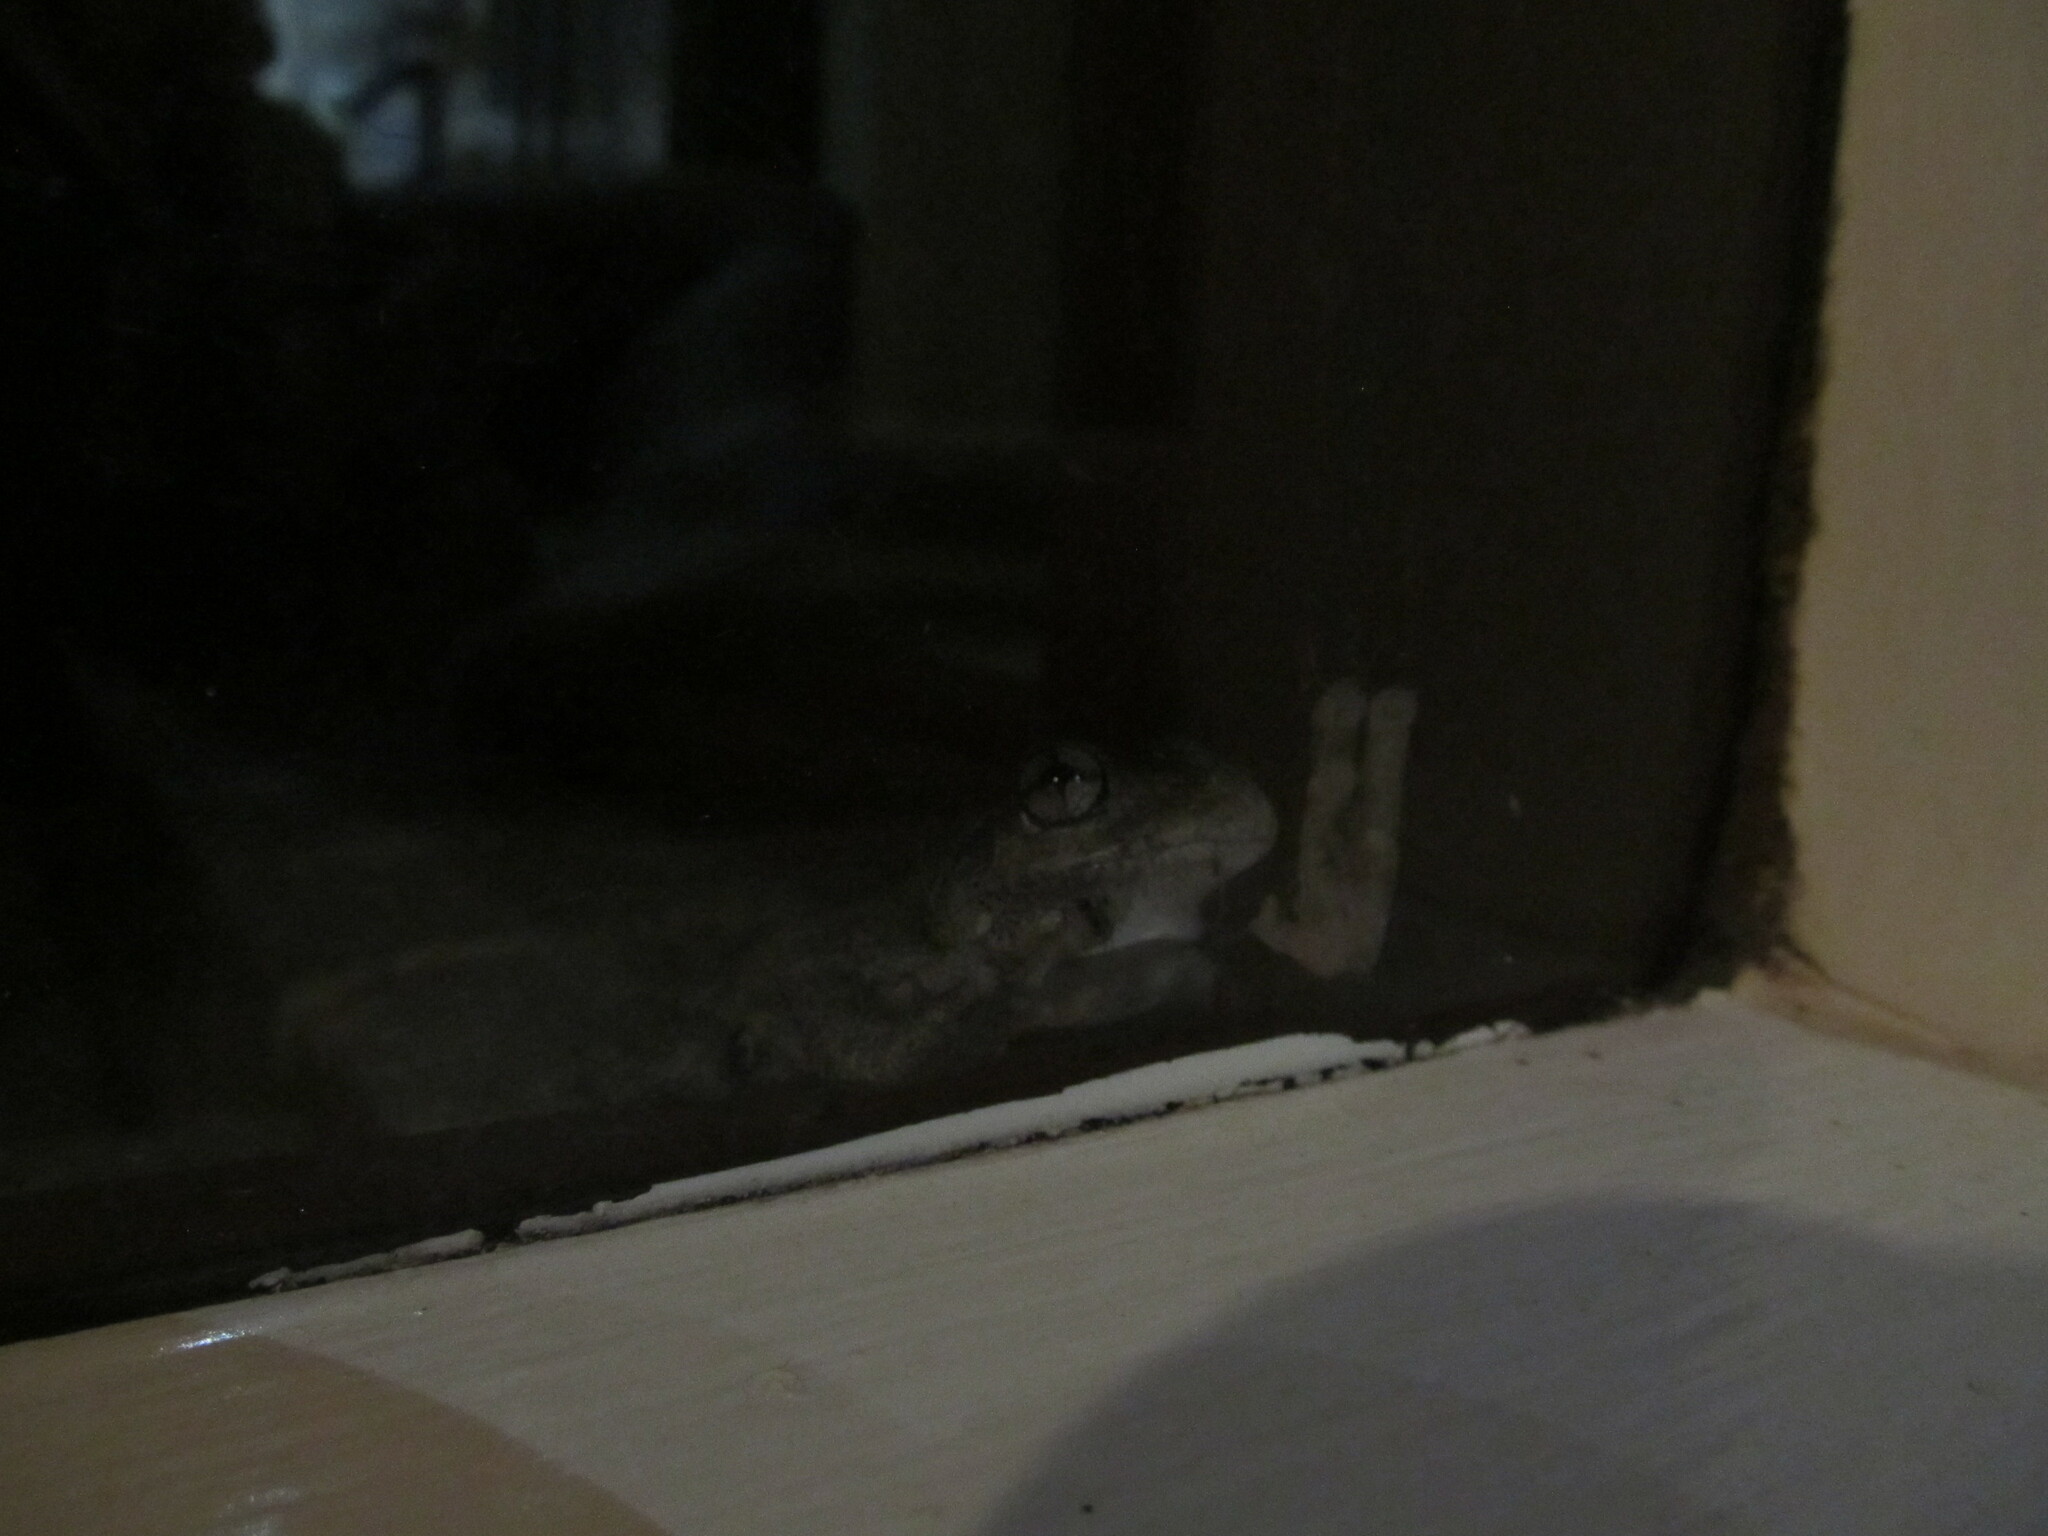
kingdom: Animalia
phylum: Chordata
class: Amphibia
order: Anura
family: Pelodryadidae
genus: Litoria
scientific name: Litoria peronii
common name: Emerald spotted treefrog
